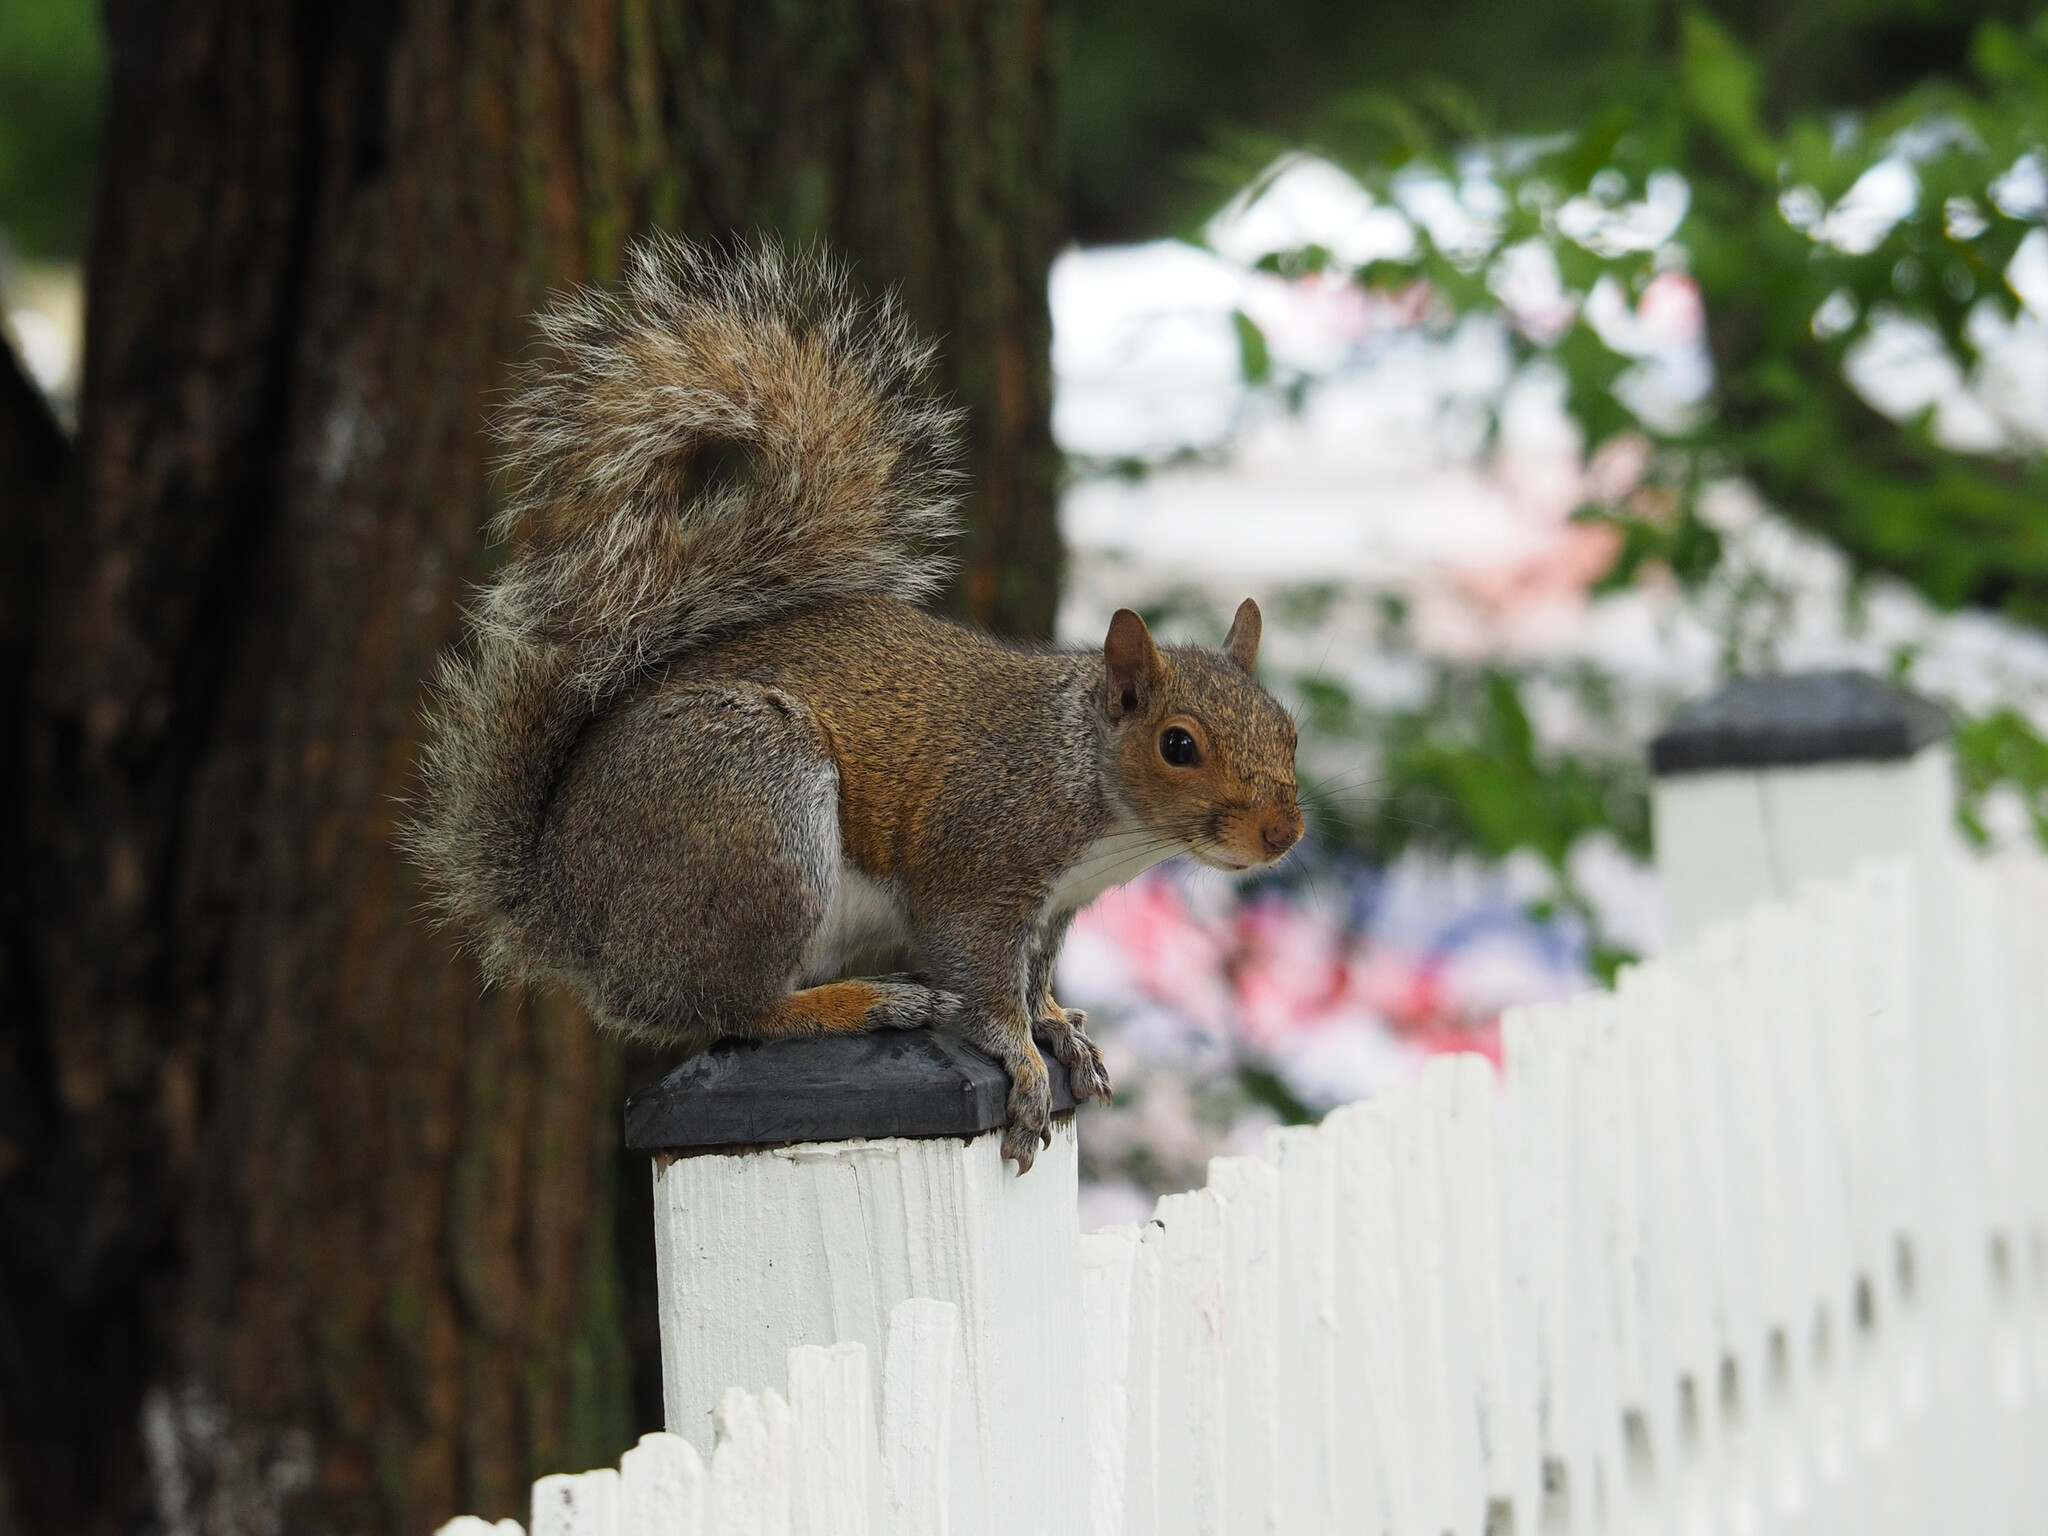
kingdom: Animalia
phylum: Chordata
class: Mammalia
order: Rodentia
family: Sciuridae
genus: Sciurus
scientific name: Sciurus carolinensis
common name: Eastern gray squirrel
